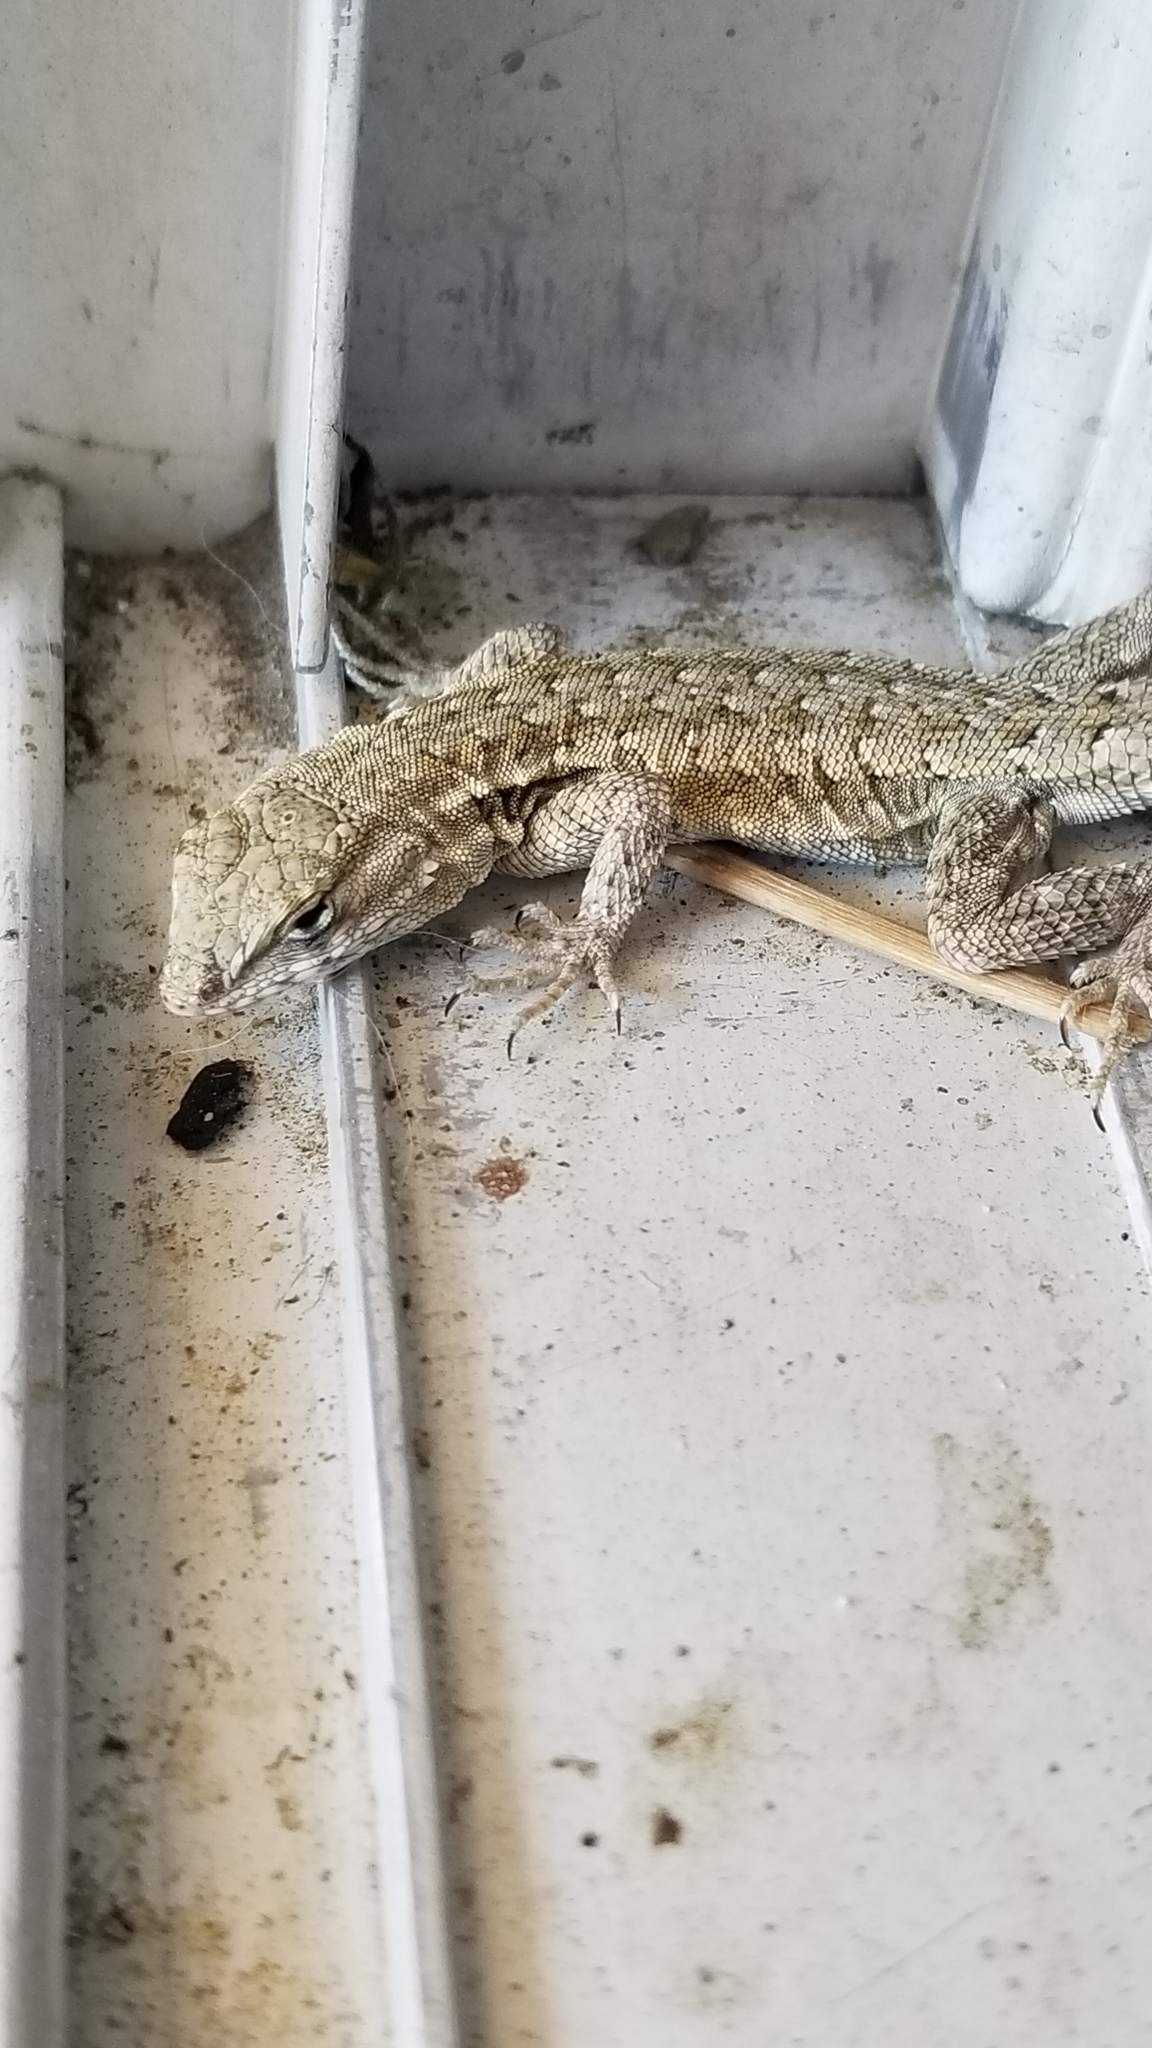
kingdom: Animalia
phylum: Chordata
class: Squamata
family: Phrynosomatidae
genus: Uta
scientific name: Uta stansburiana
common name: Side-blotched lizard
